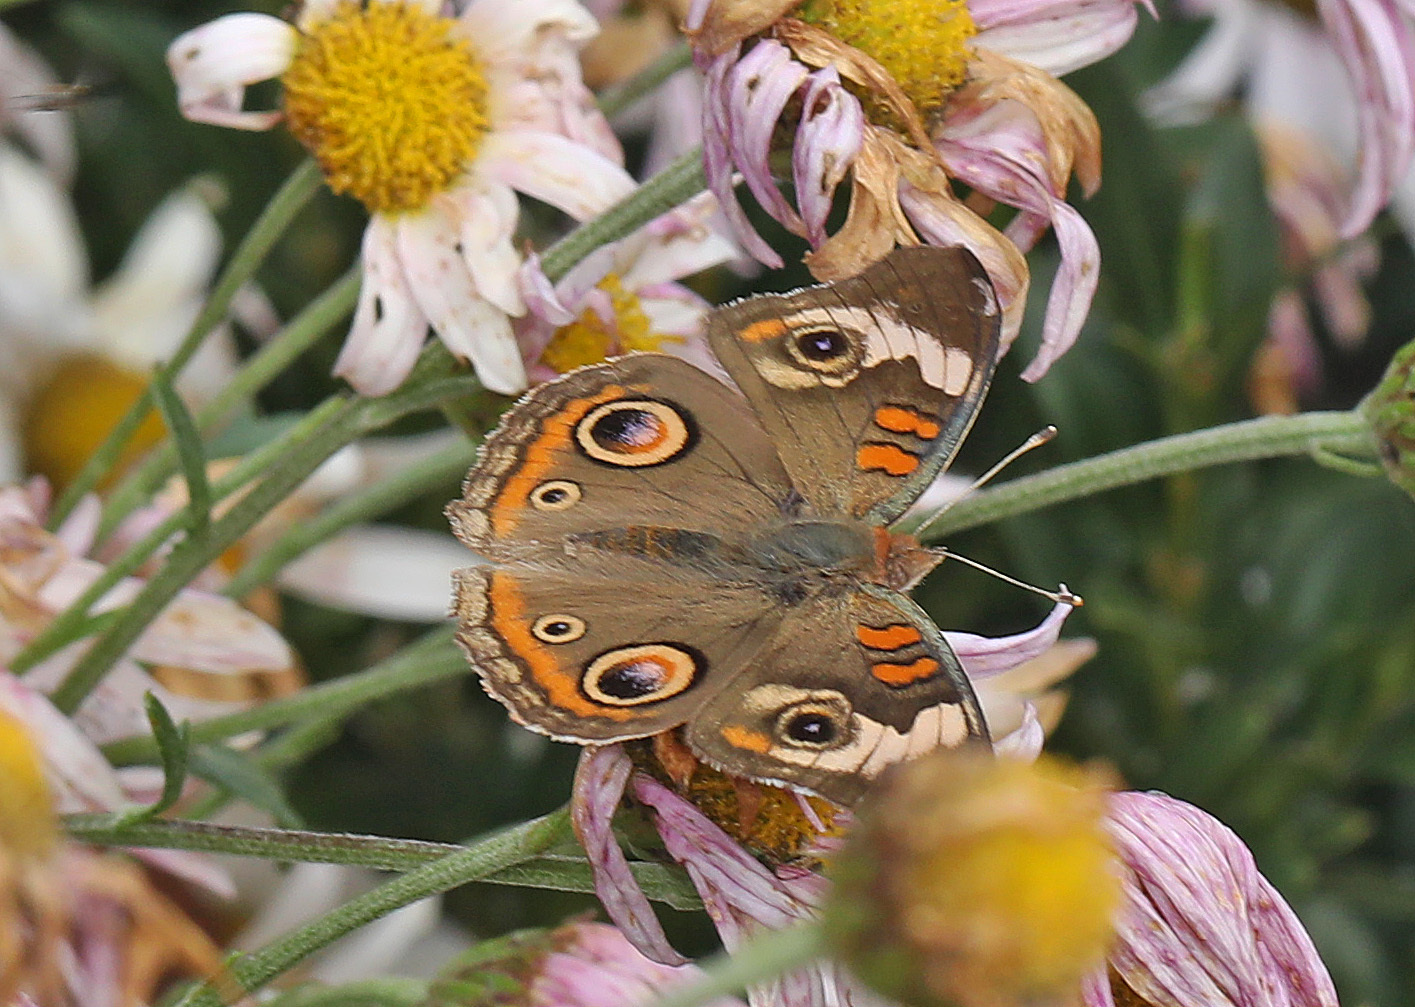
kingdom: Animalia
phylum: Arthropoda
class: Insecta
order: Lepidoptera
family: Nymphalidae
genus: Junonia
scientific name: Junonia coenia
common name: Common buckeye
